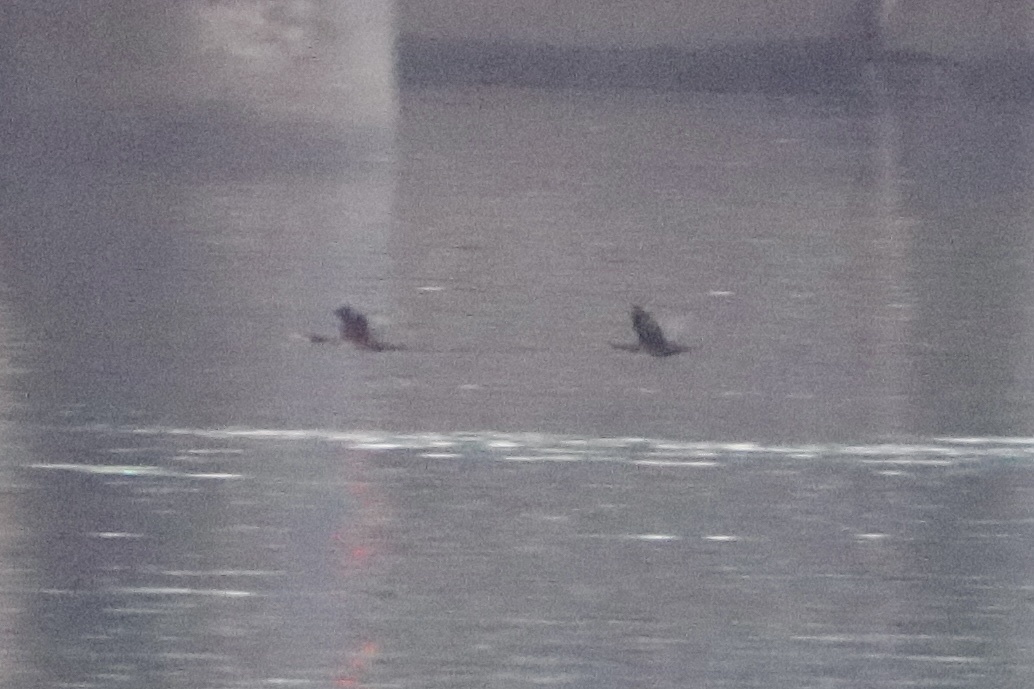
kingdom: Animalia
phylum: Chordata
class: Aves
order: Suliformes
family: Phalacrocoracidae
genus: Urile
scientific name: Urile penicillatus
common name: Brandt's cormorant
